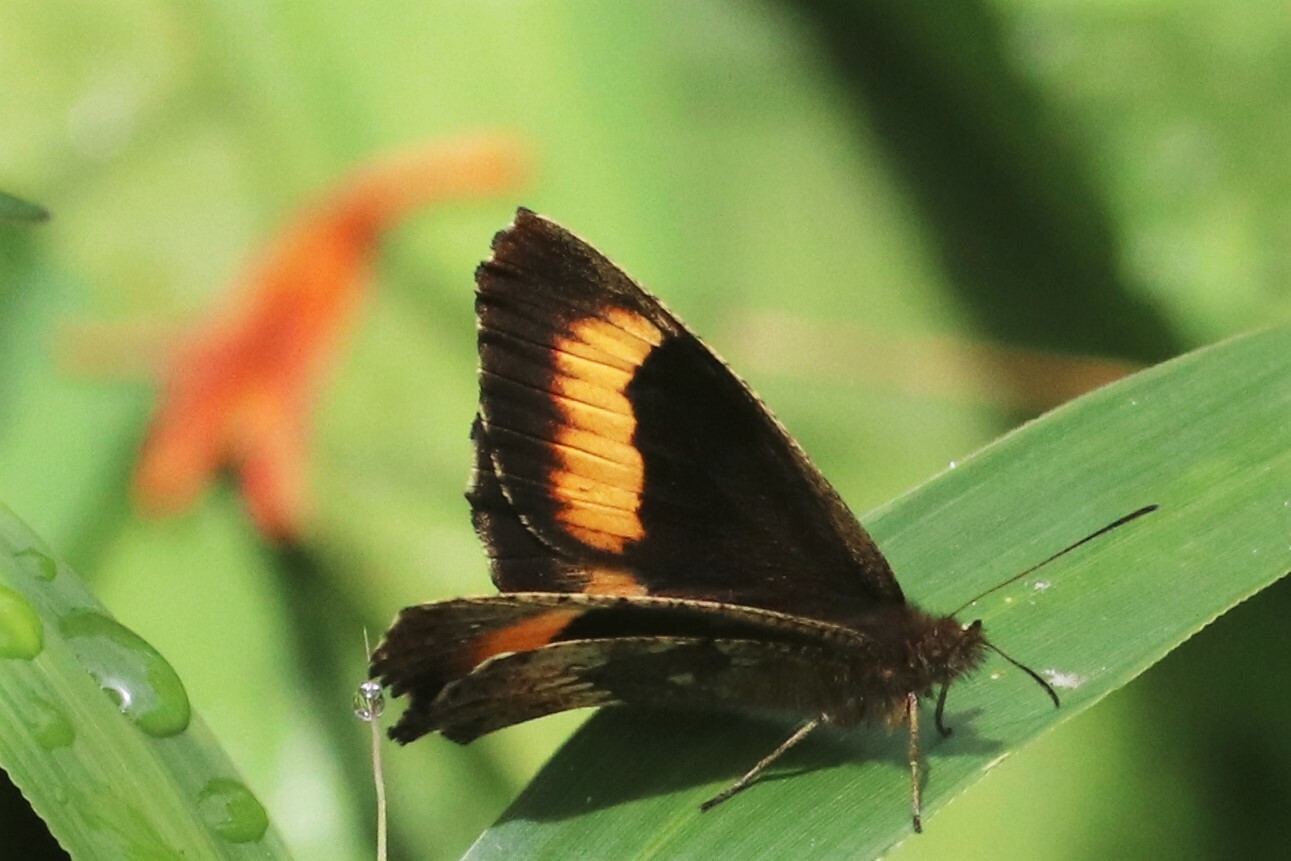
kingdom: Animalia
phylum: Arthropoda
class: Insecta
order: Lepidoptera
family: Nymphalidae
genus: Pedaliodes
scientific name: Pedaliodes phaea
